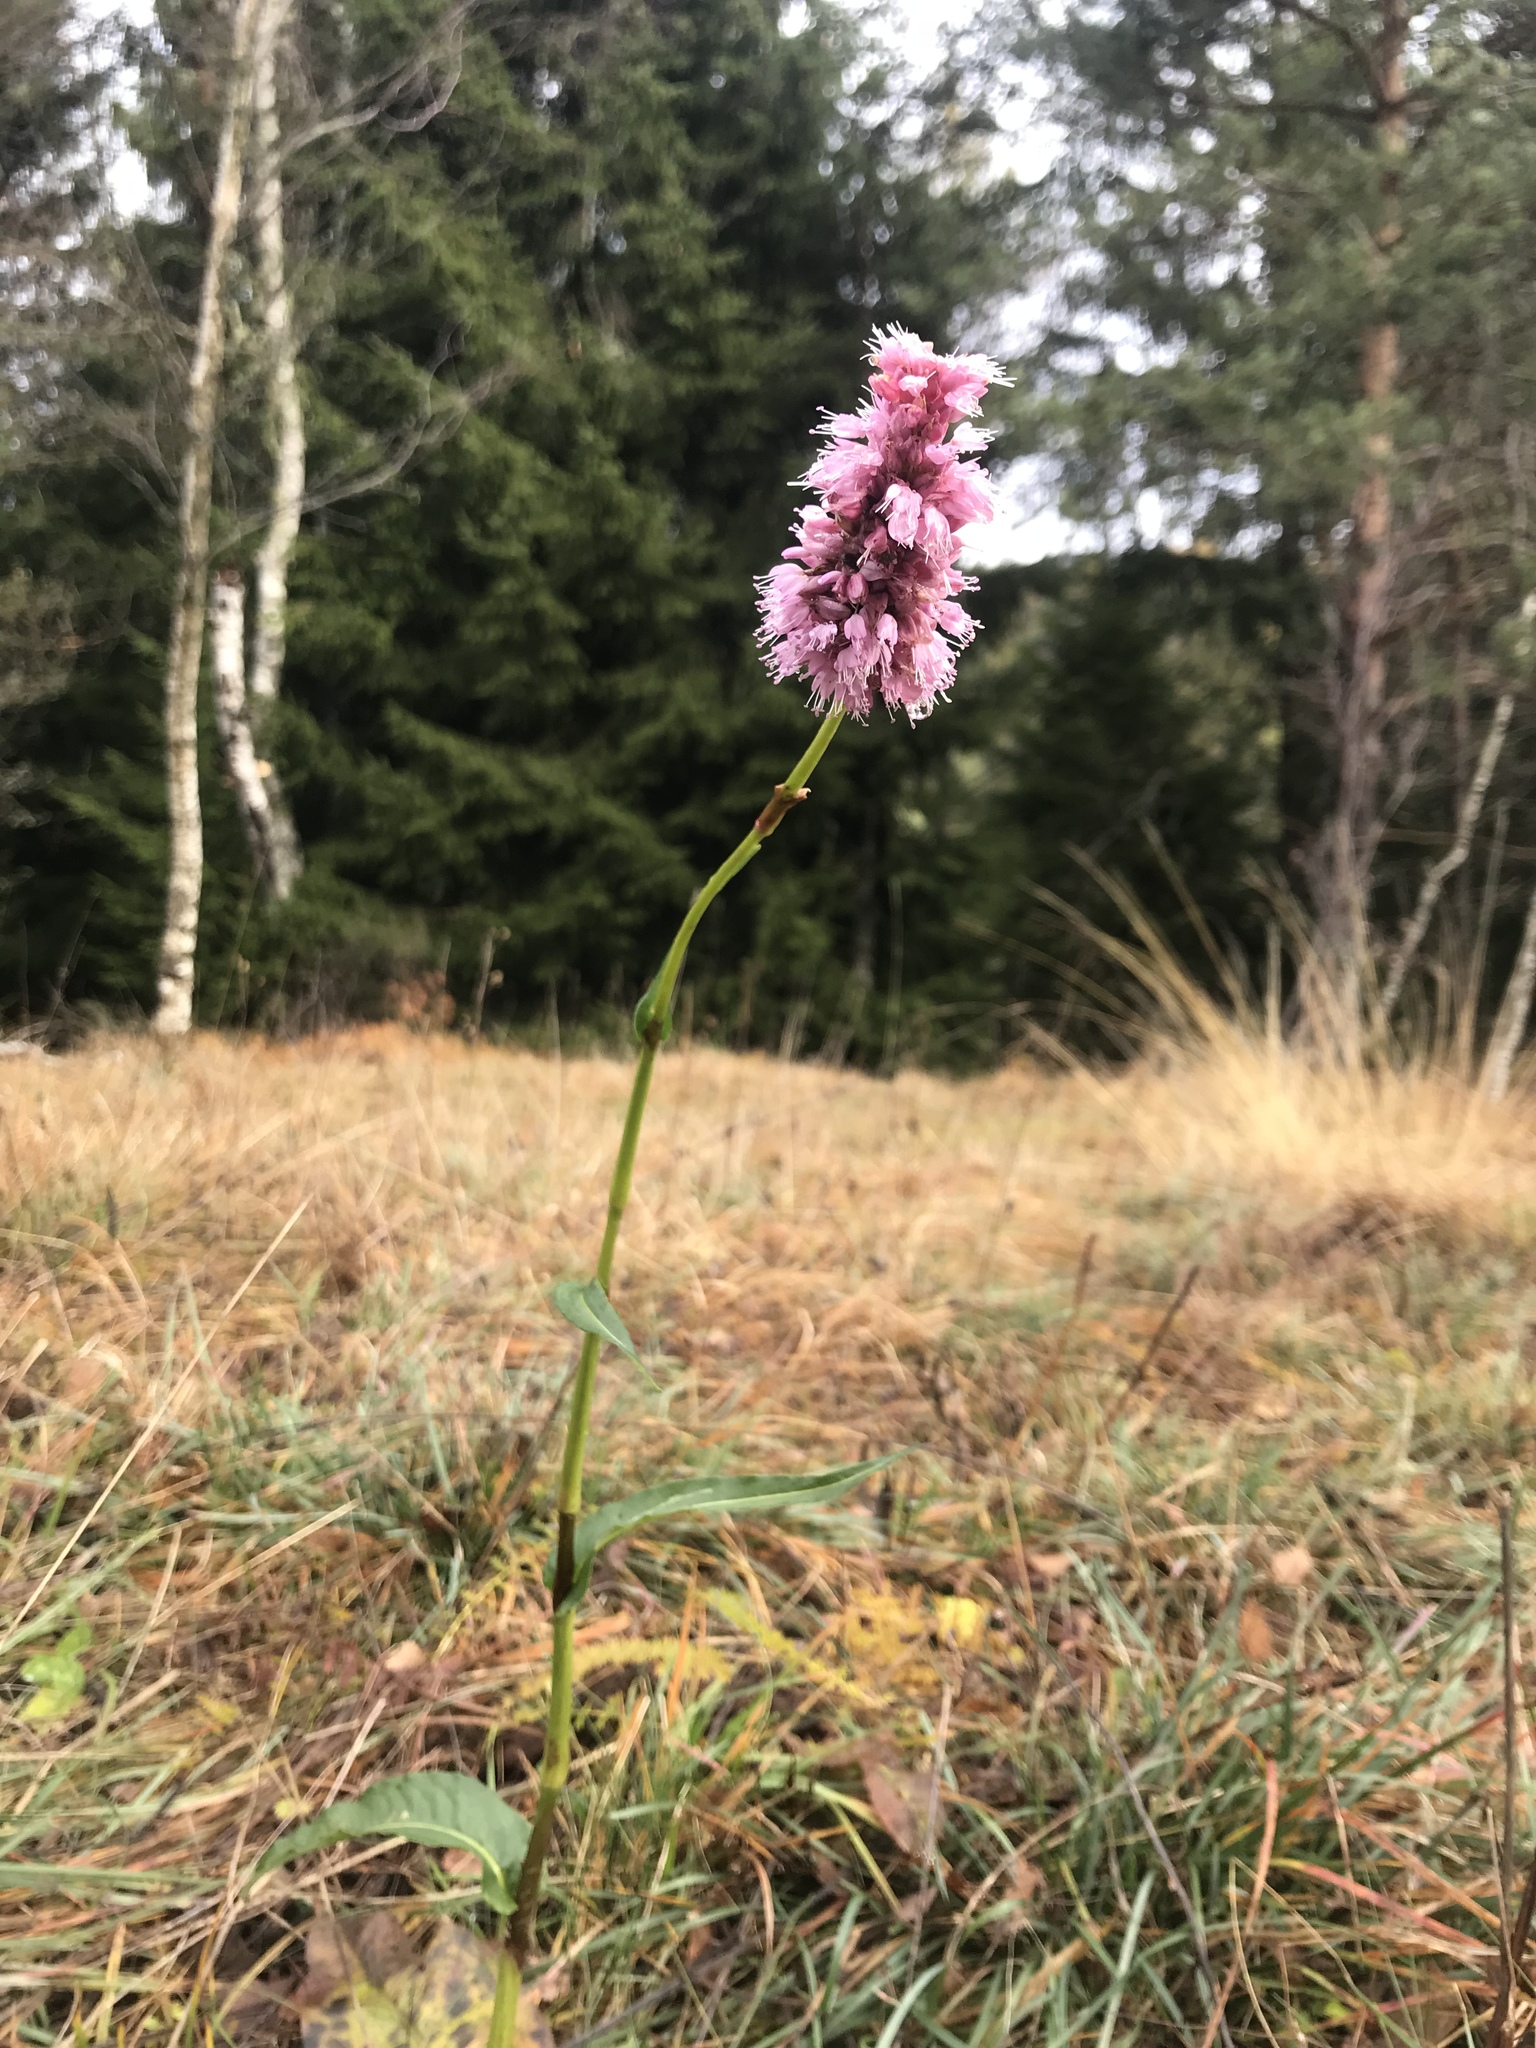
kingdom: Plantae
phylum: Tracheophyta
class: Magnoliopsida
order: Caryophyllales
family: Polygonaceae
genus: Bistorta
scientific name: Bistorta officinalis
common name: Common bistort
